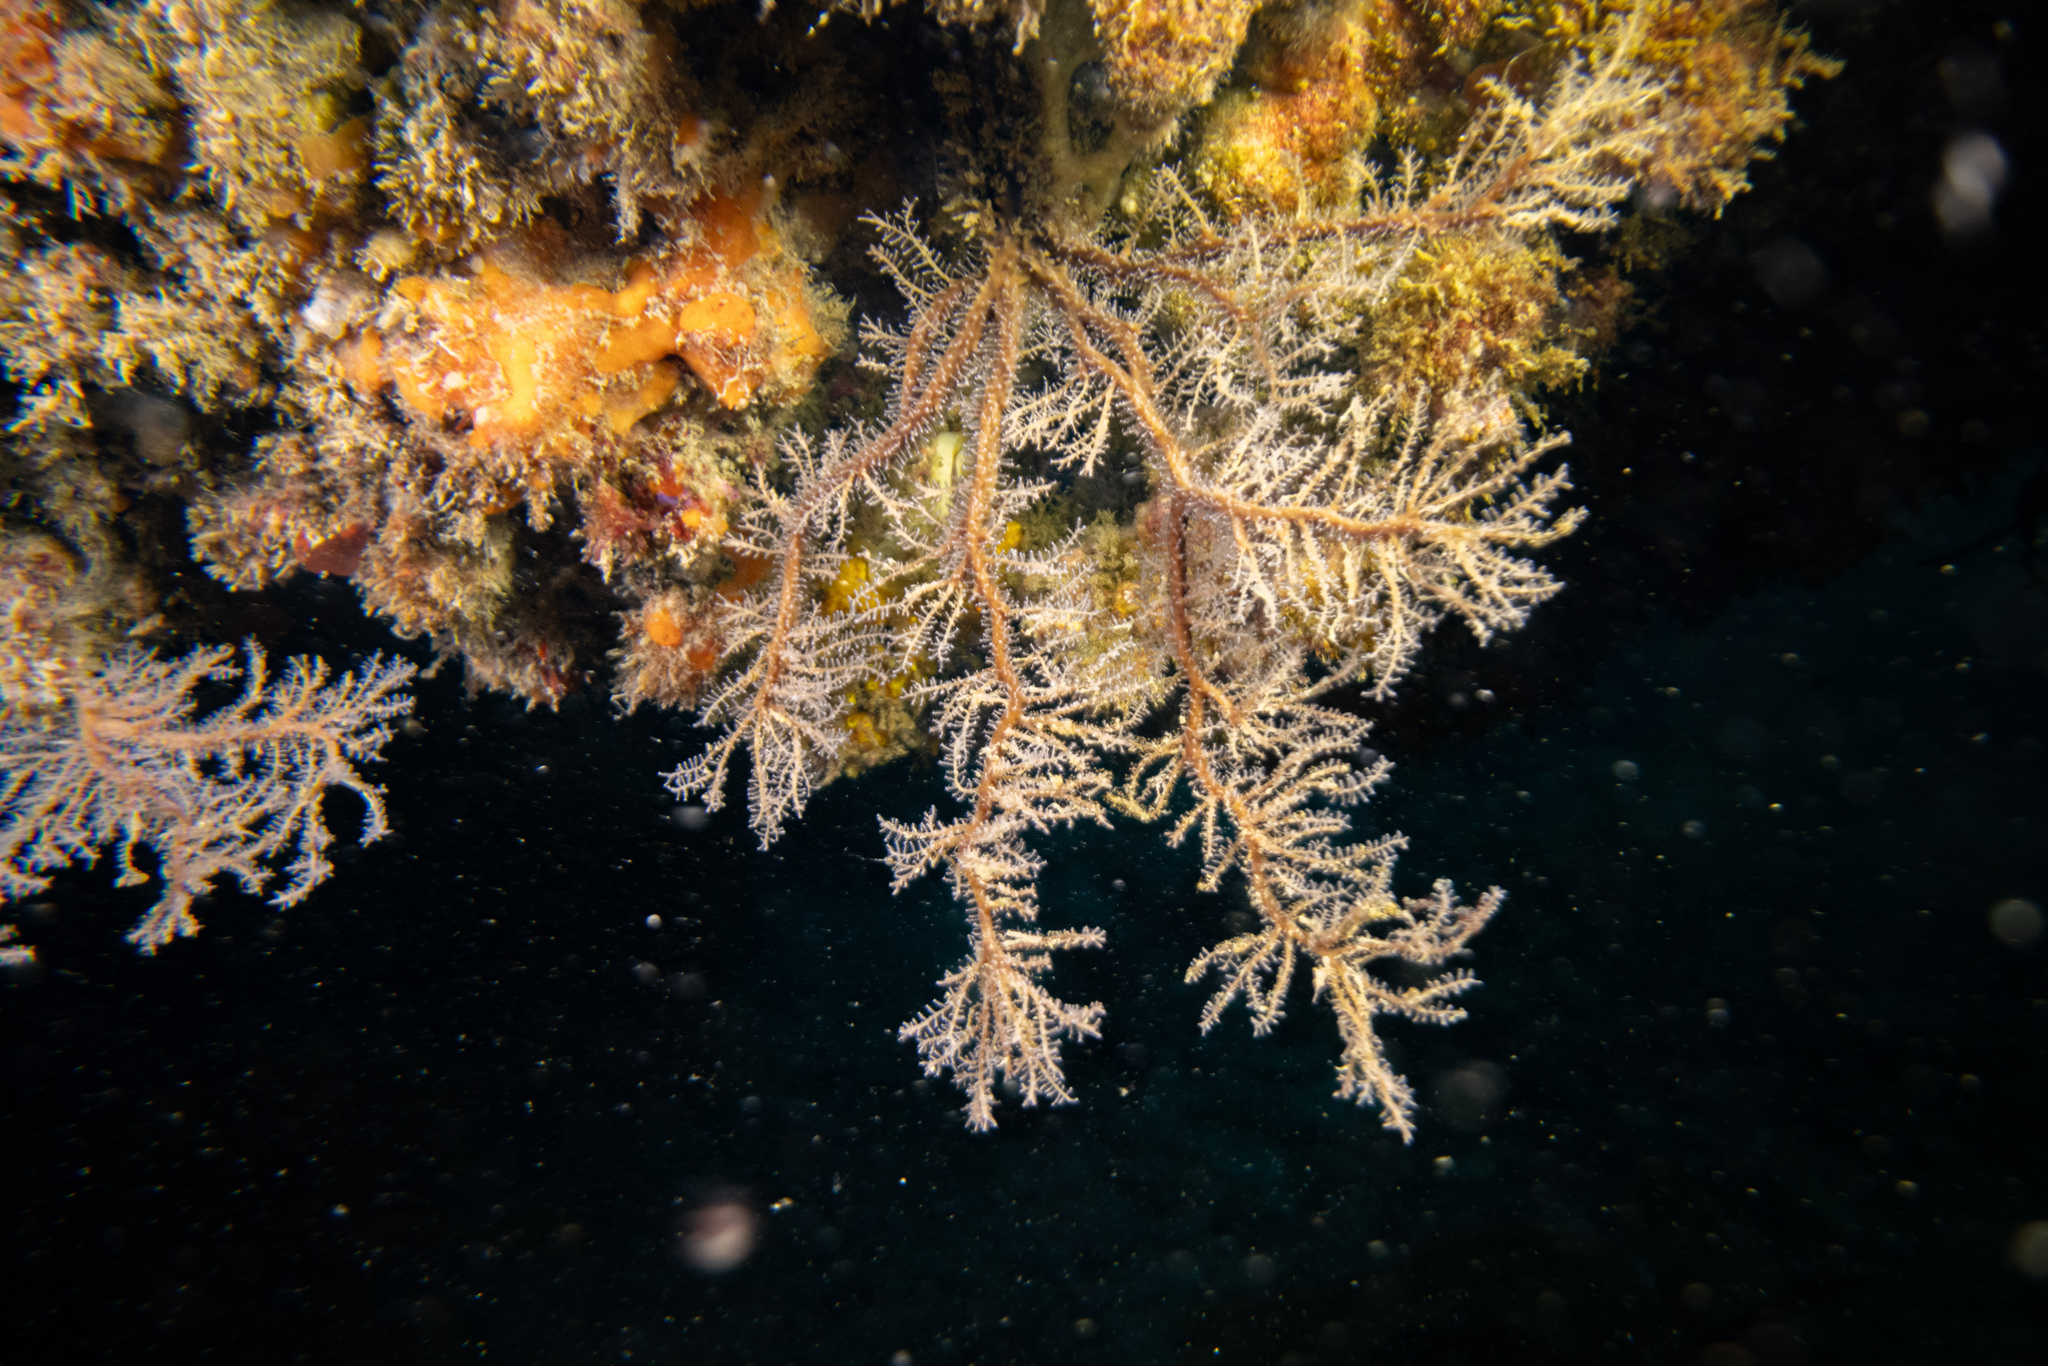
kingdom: Animalia
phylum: Cnidaria
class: Hydrozoa
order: Anthoathecata
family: Solanderiidae
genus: Solanderia
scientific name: Solanderia ericopsis
